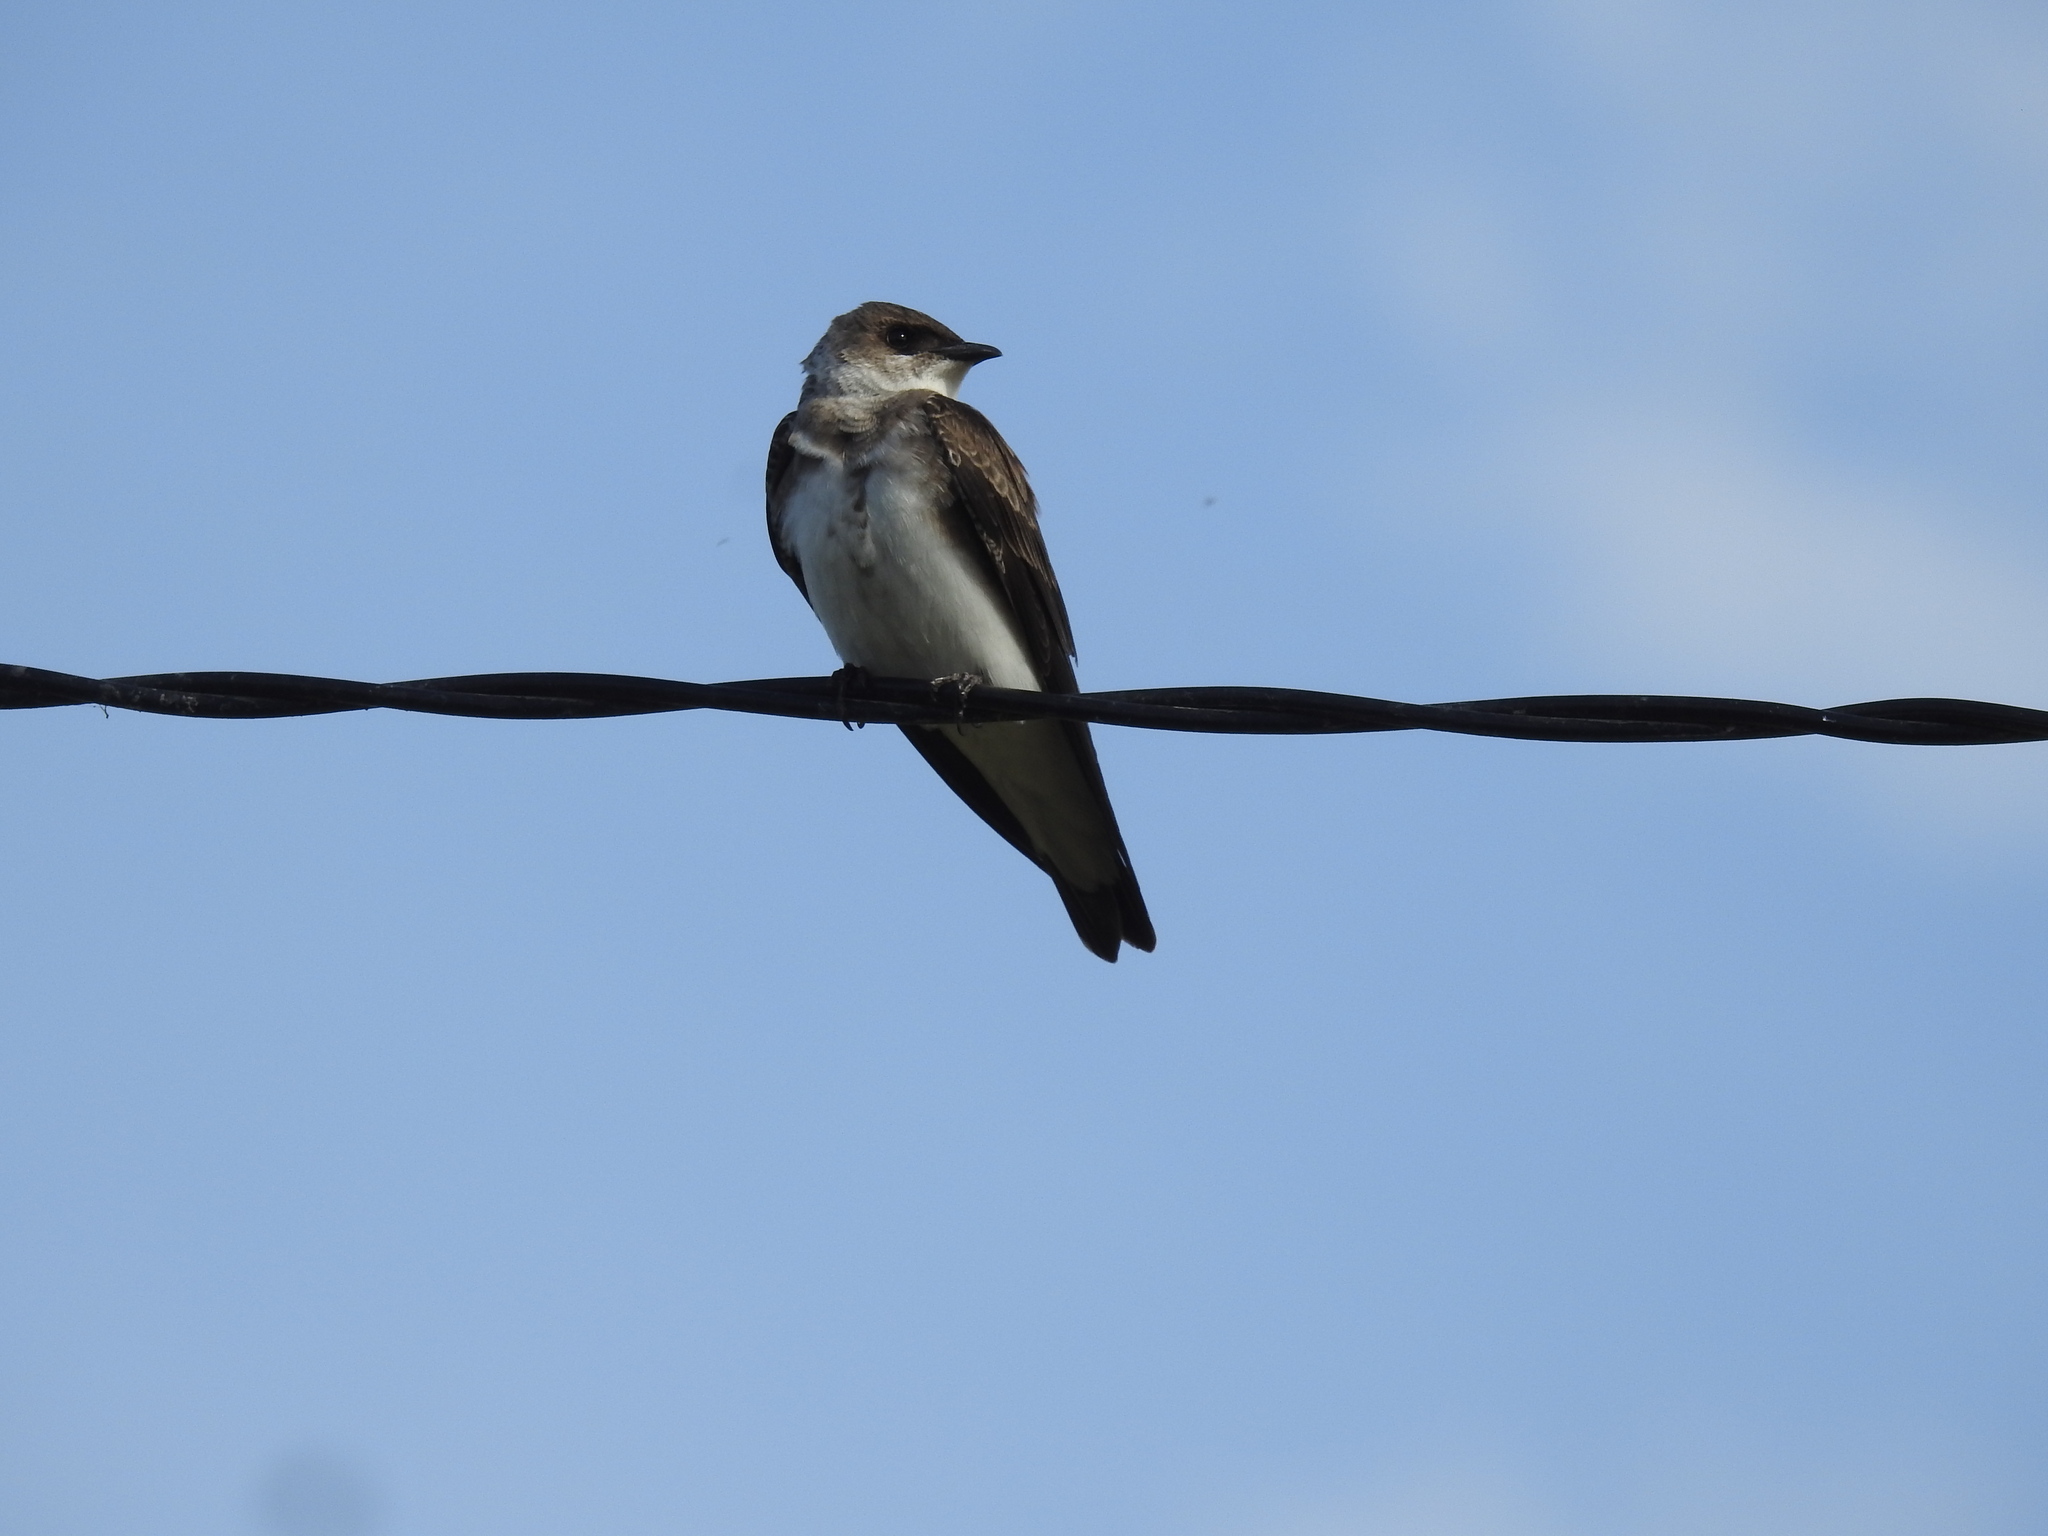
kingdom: Animalia
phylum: Chordata
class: Aves
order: Passeriformes
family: Hirundinidae
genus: Progne
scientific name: Progne tapera
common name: Brown-chested martin
